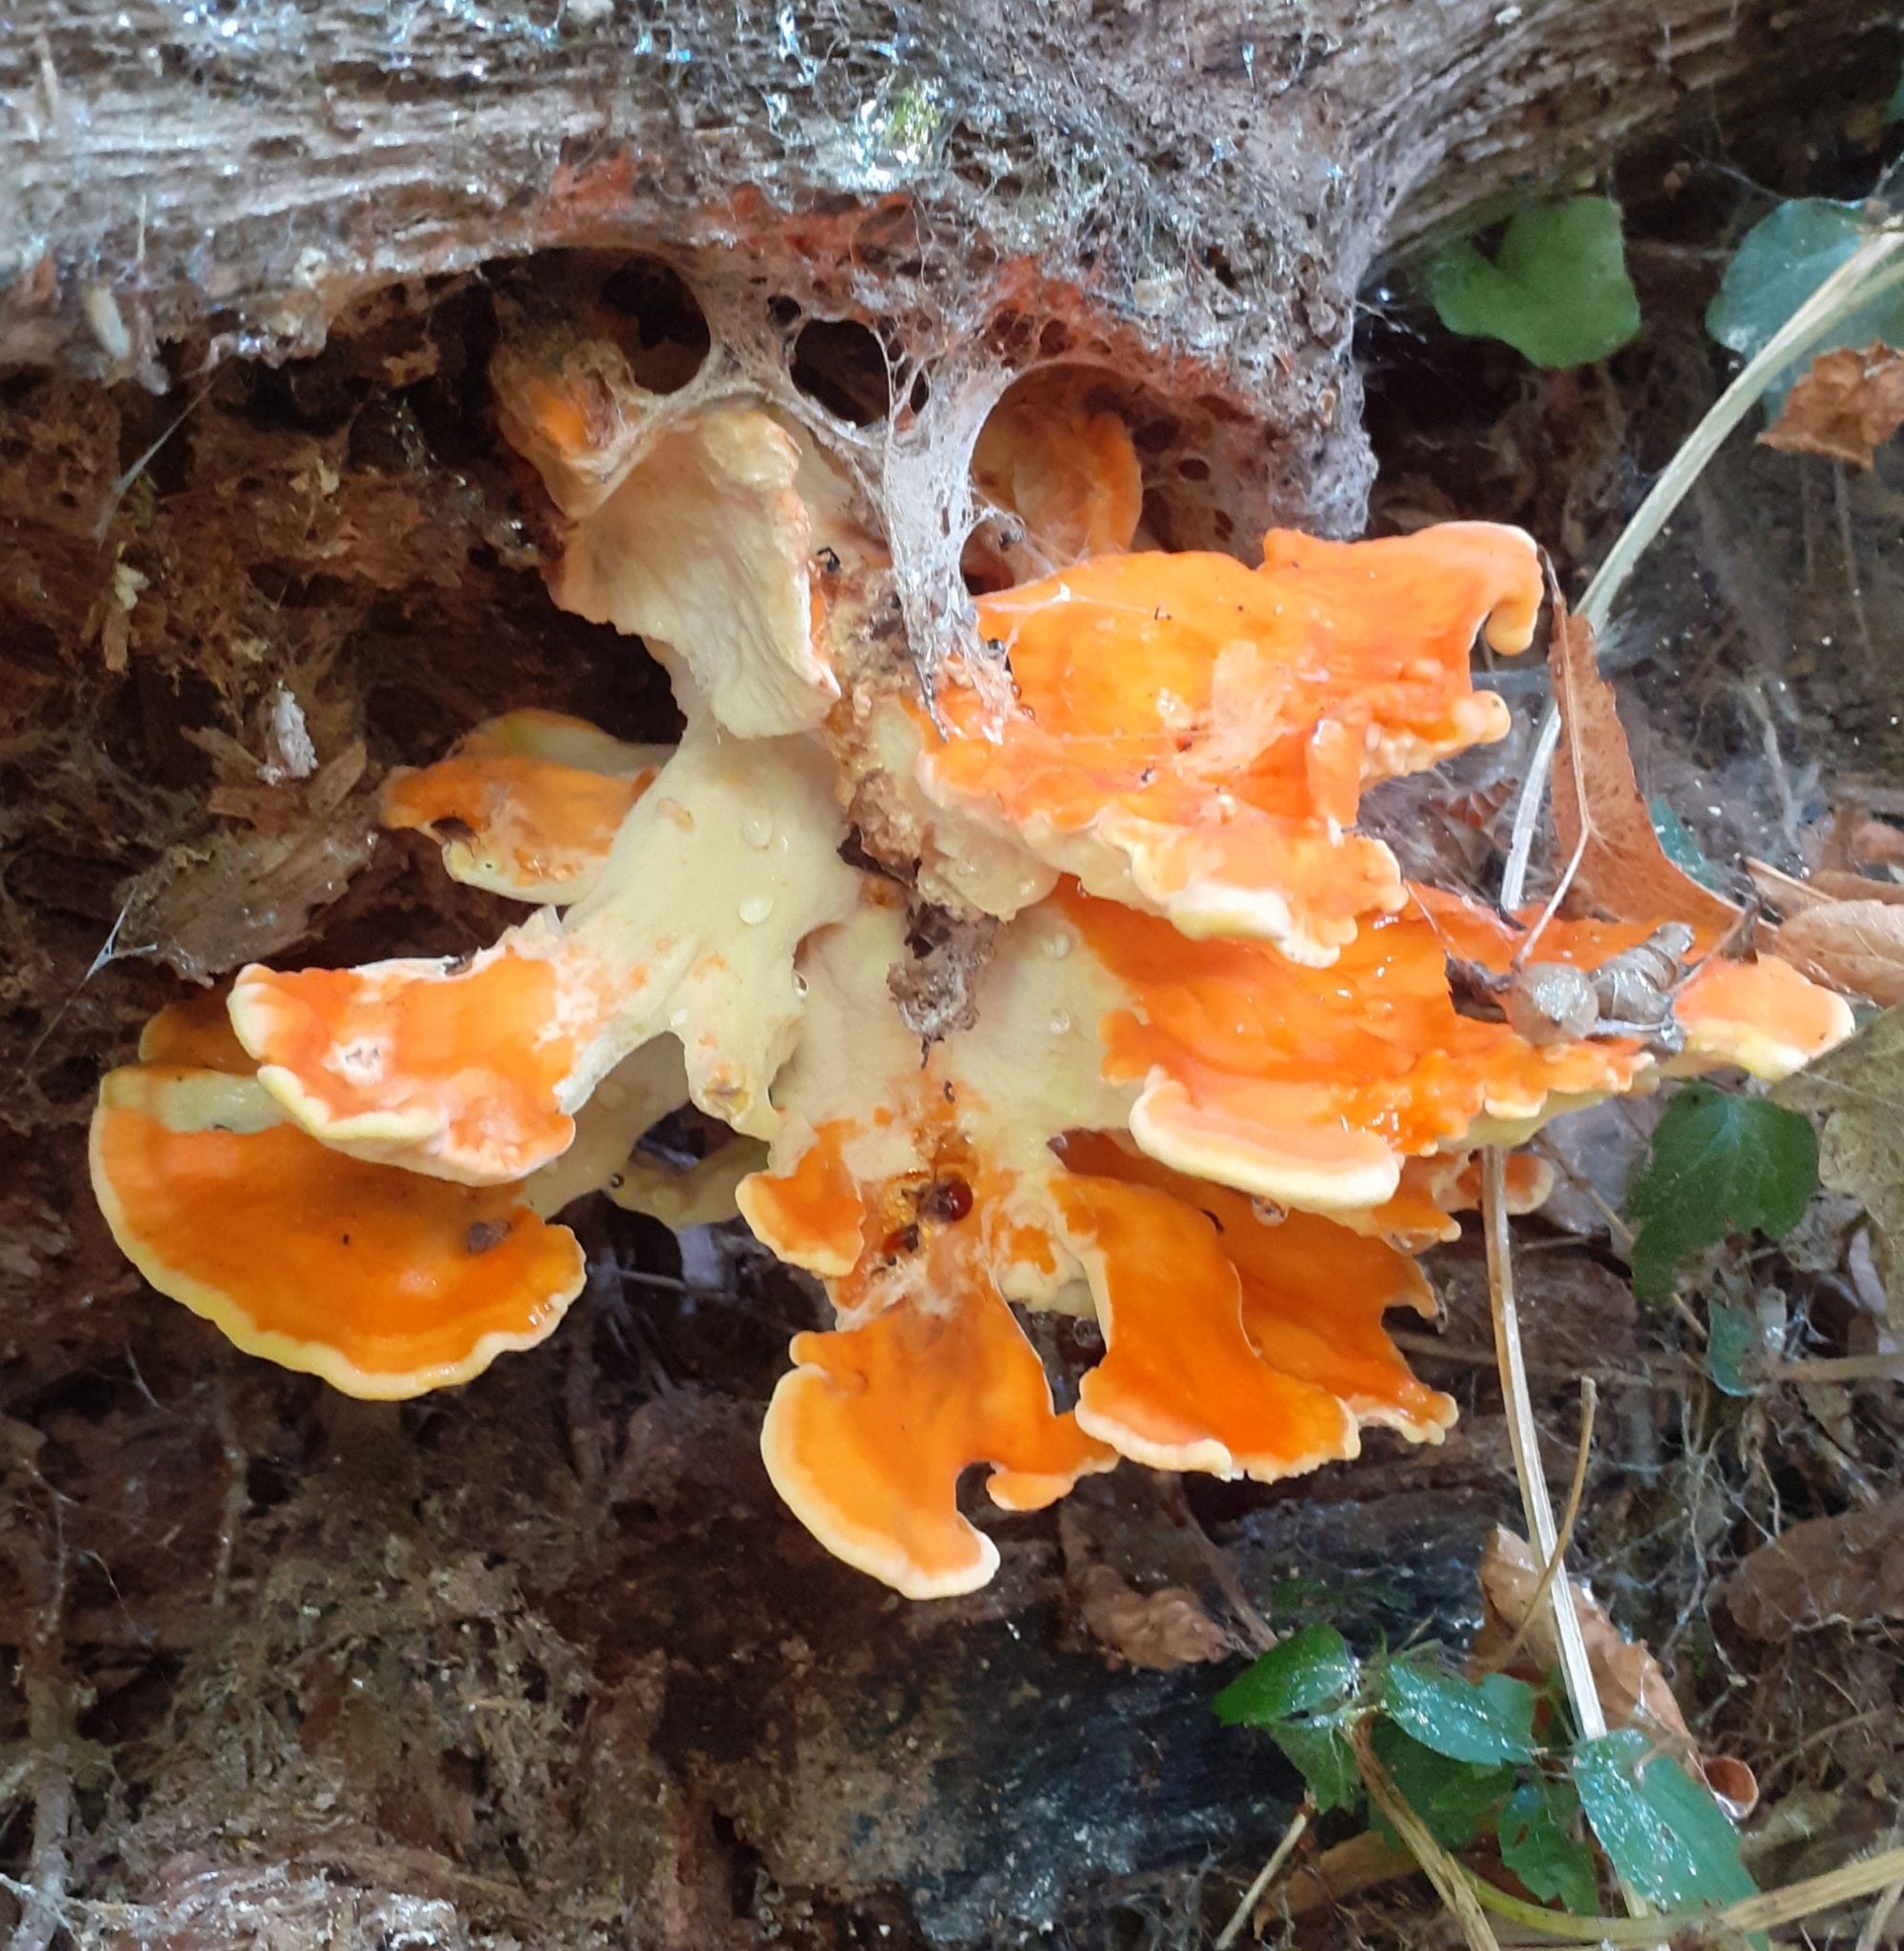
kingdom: Fungi
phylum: Basidiomycota
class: Agaricomycetes
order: Polyporales
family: Laetiporaceae
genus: Laetiporus
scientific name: Laetiporus sulphureus
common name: Chicken of the woods
